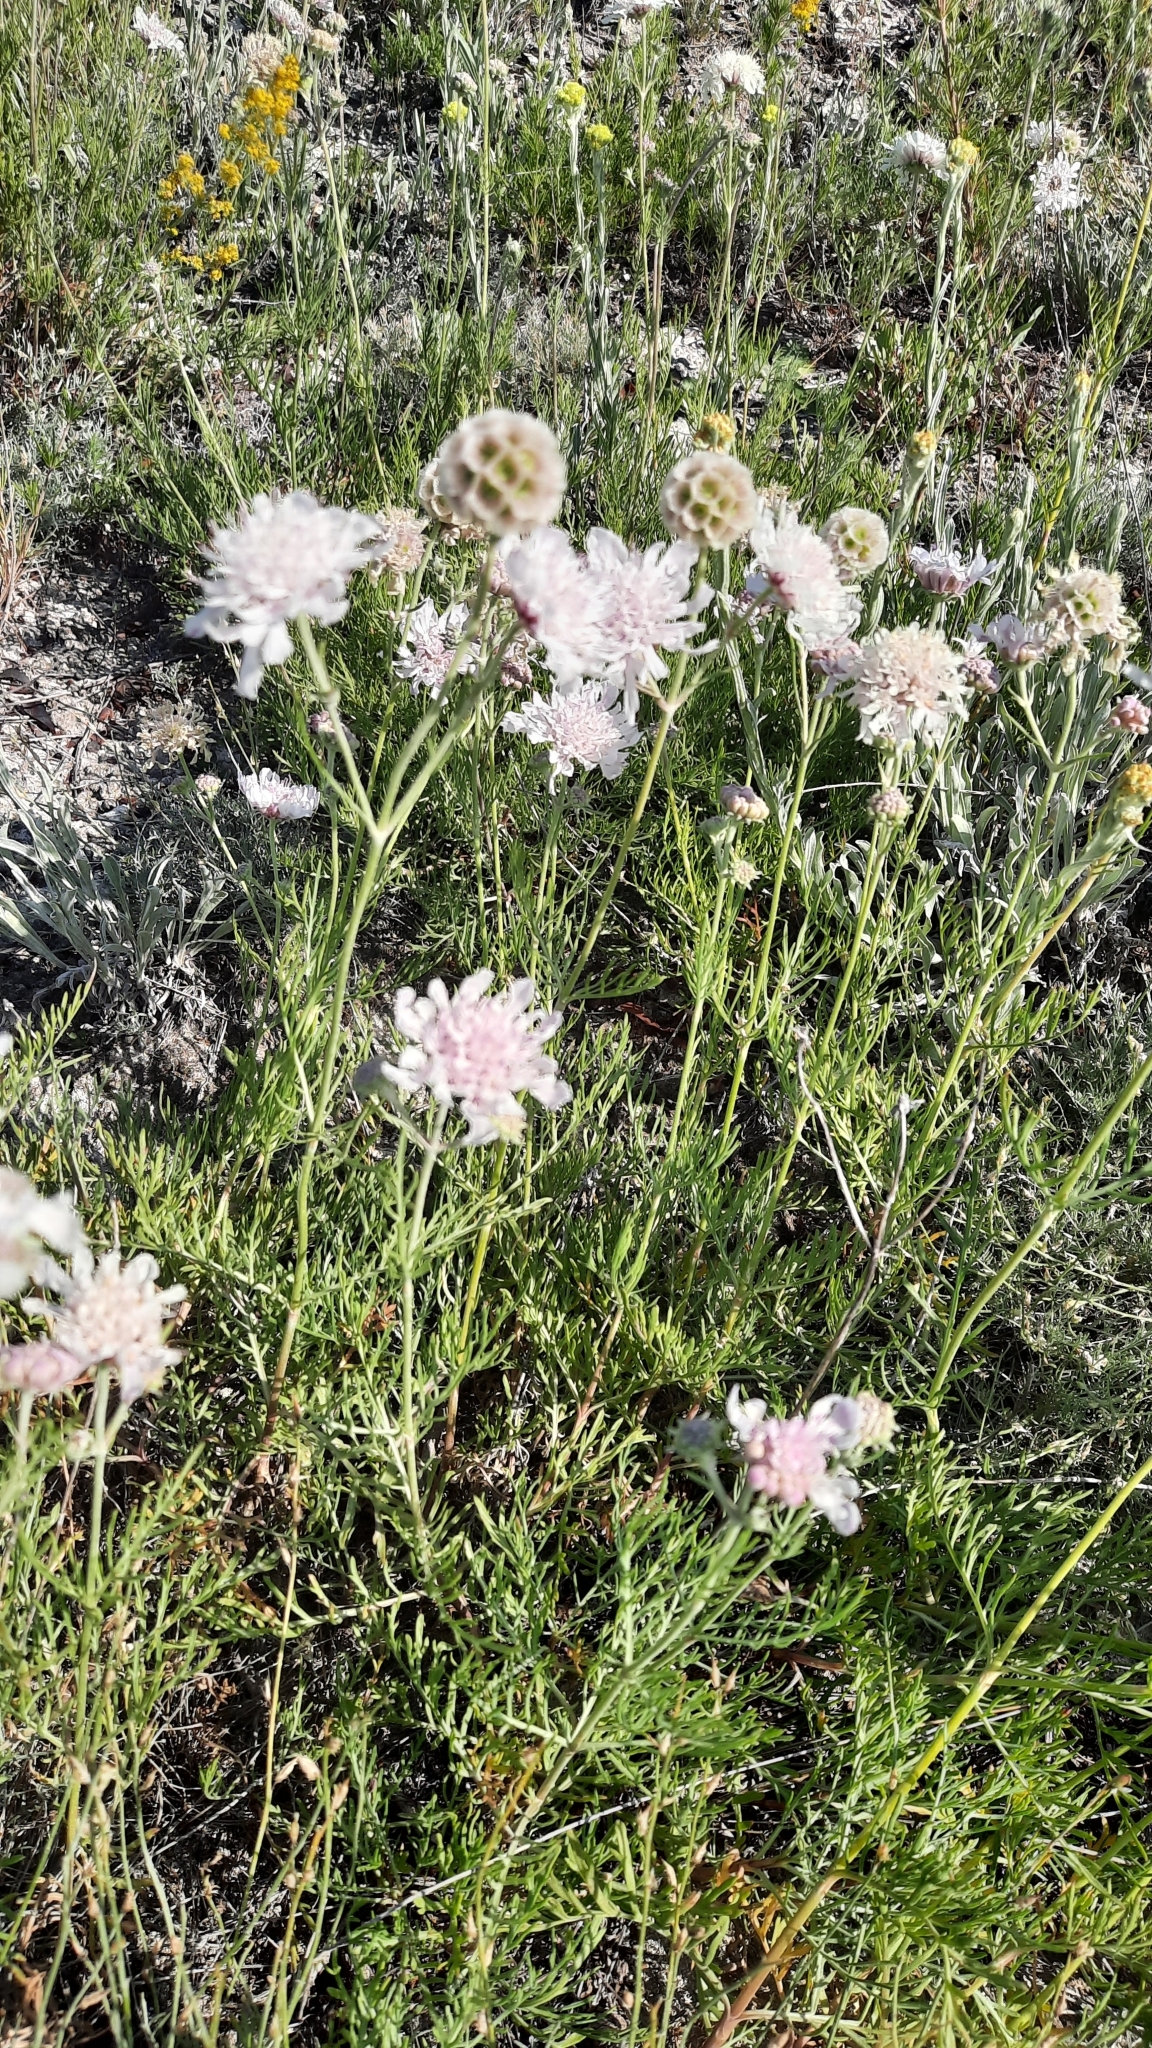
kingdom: Plantae
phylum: Tracheophyta
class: Magnoliopsida
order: Dipsacales
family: Caprifoliaceae
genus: Lomelosia
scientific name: Lomelosia isetensis
